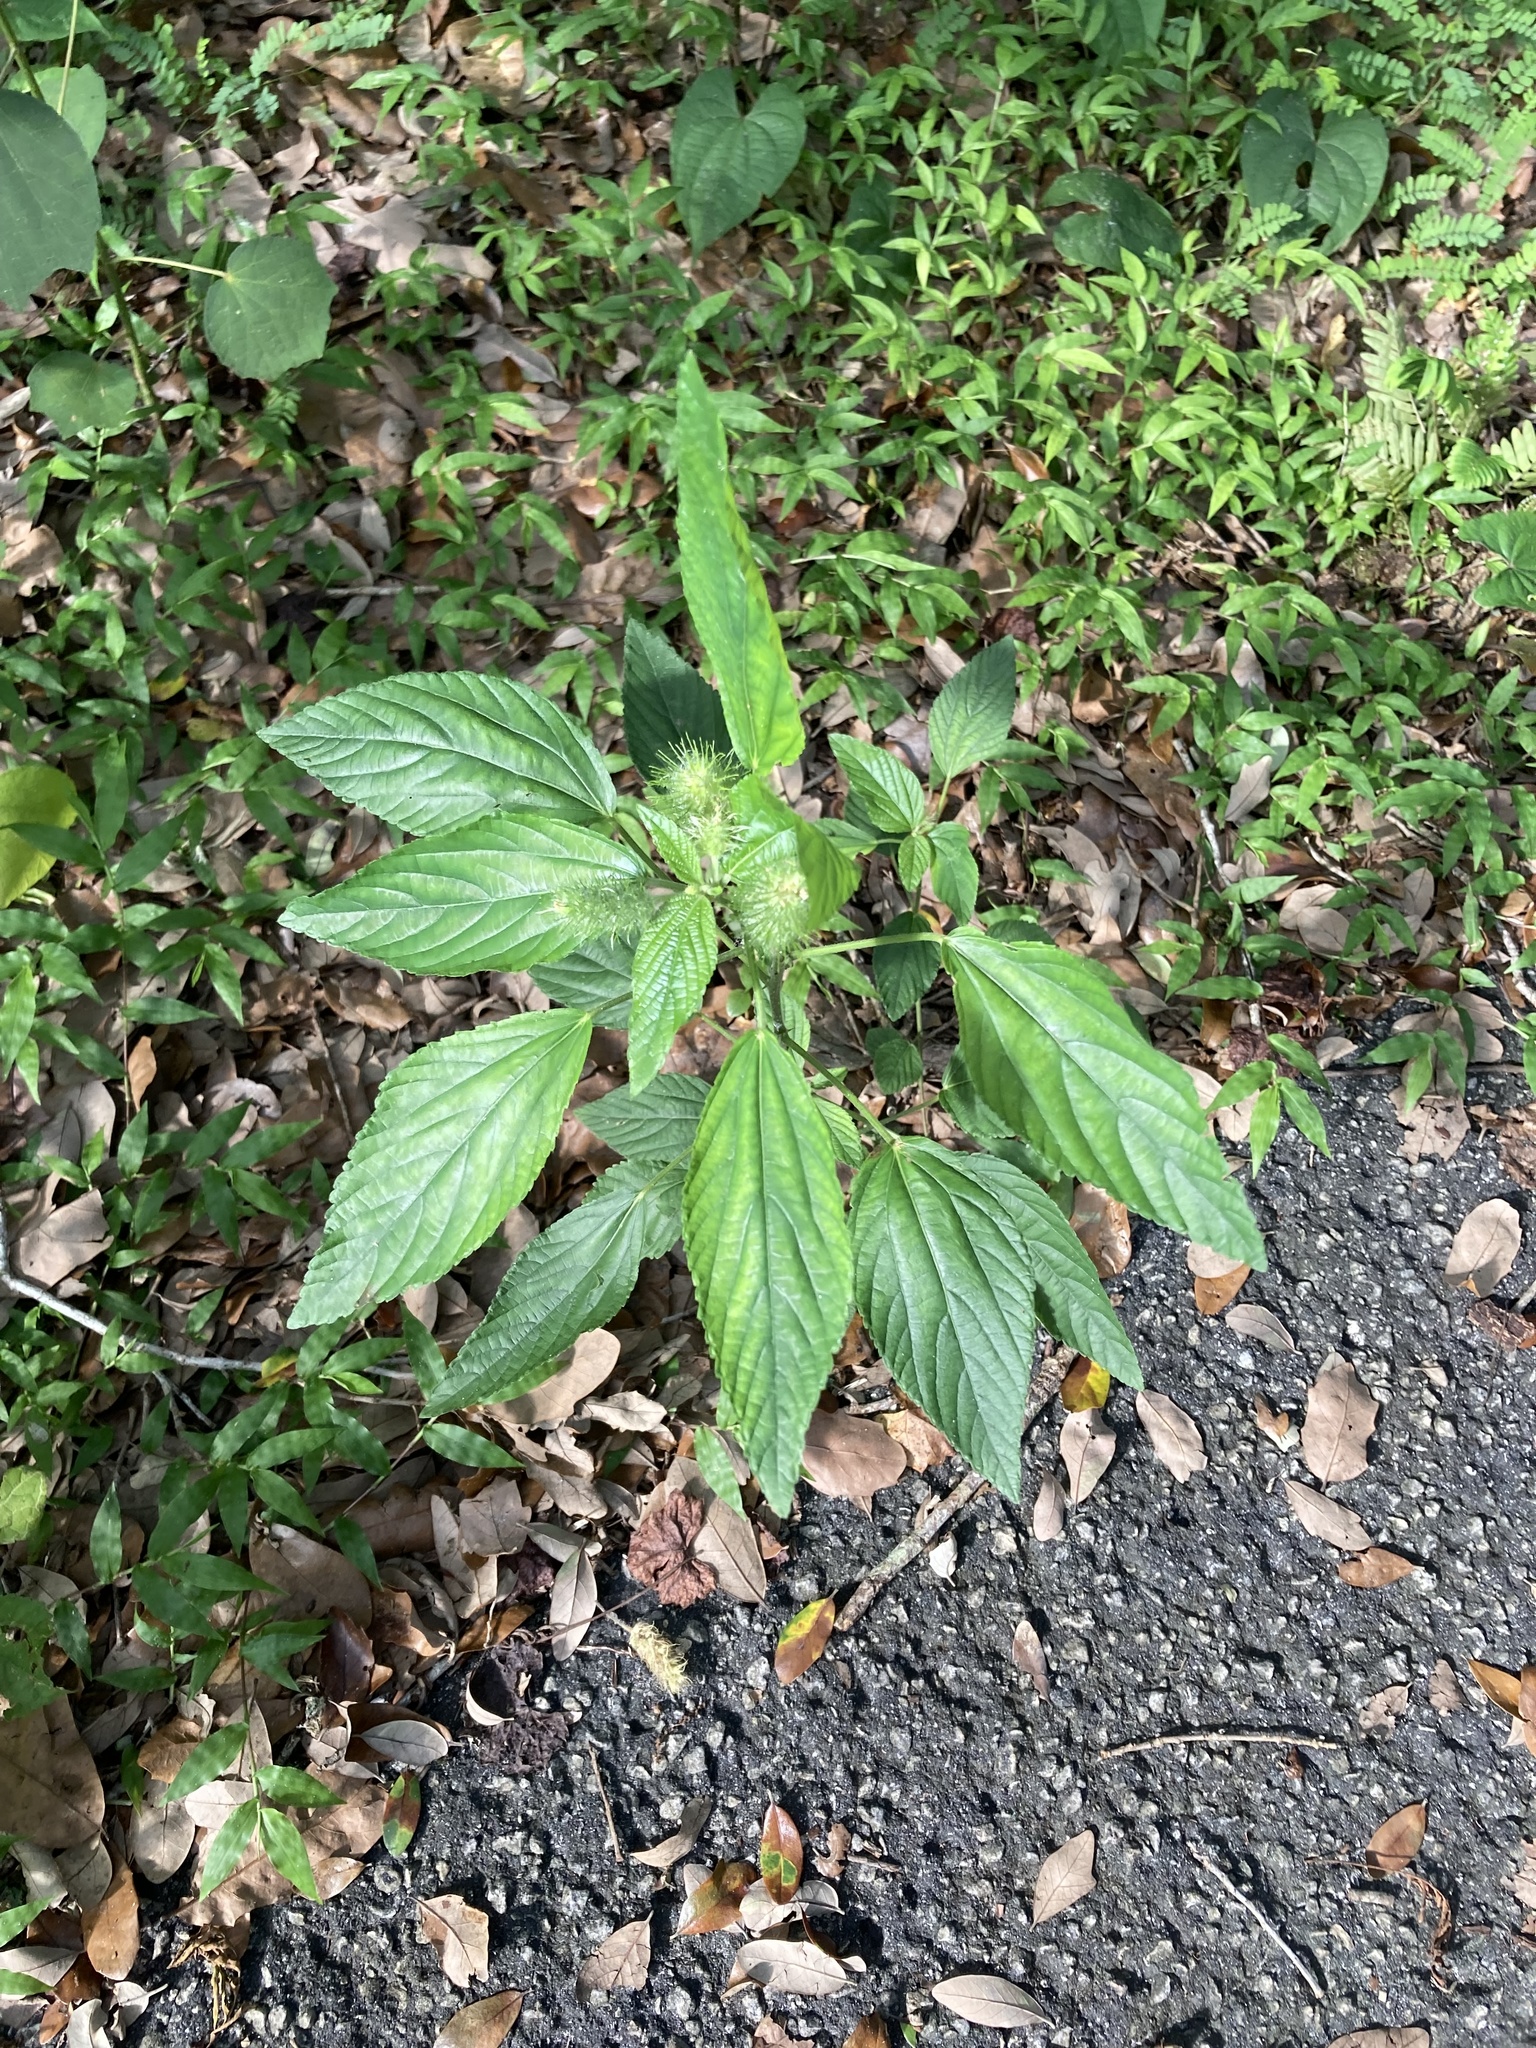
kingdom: Plantae
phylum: Tracheophyta
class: Magnoliopsida
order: Malpighiales
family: Euphorbiaceae
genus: Acalypha
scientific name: Acalypha arvensis
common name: Field copperleaf
